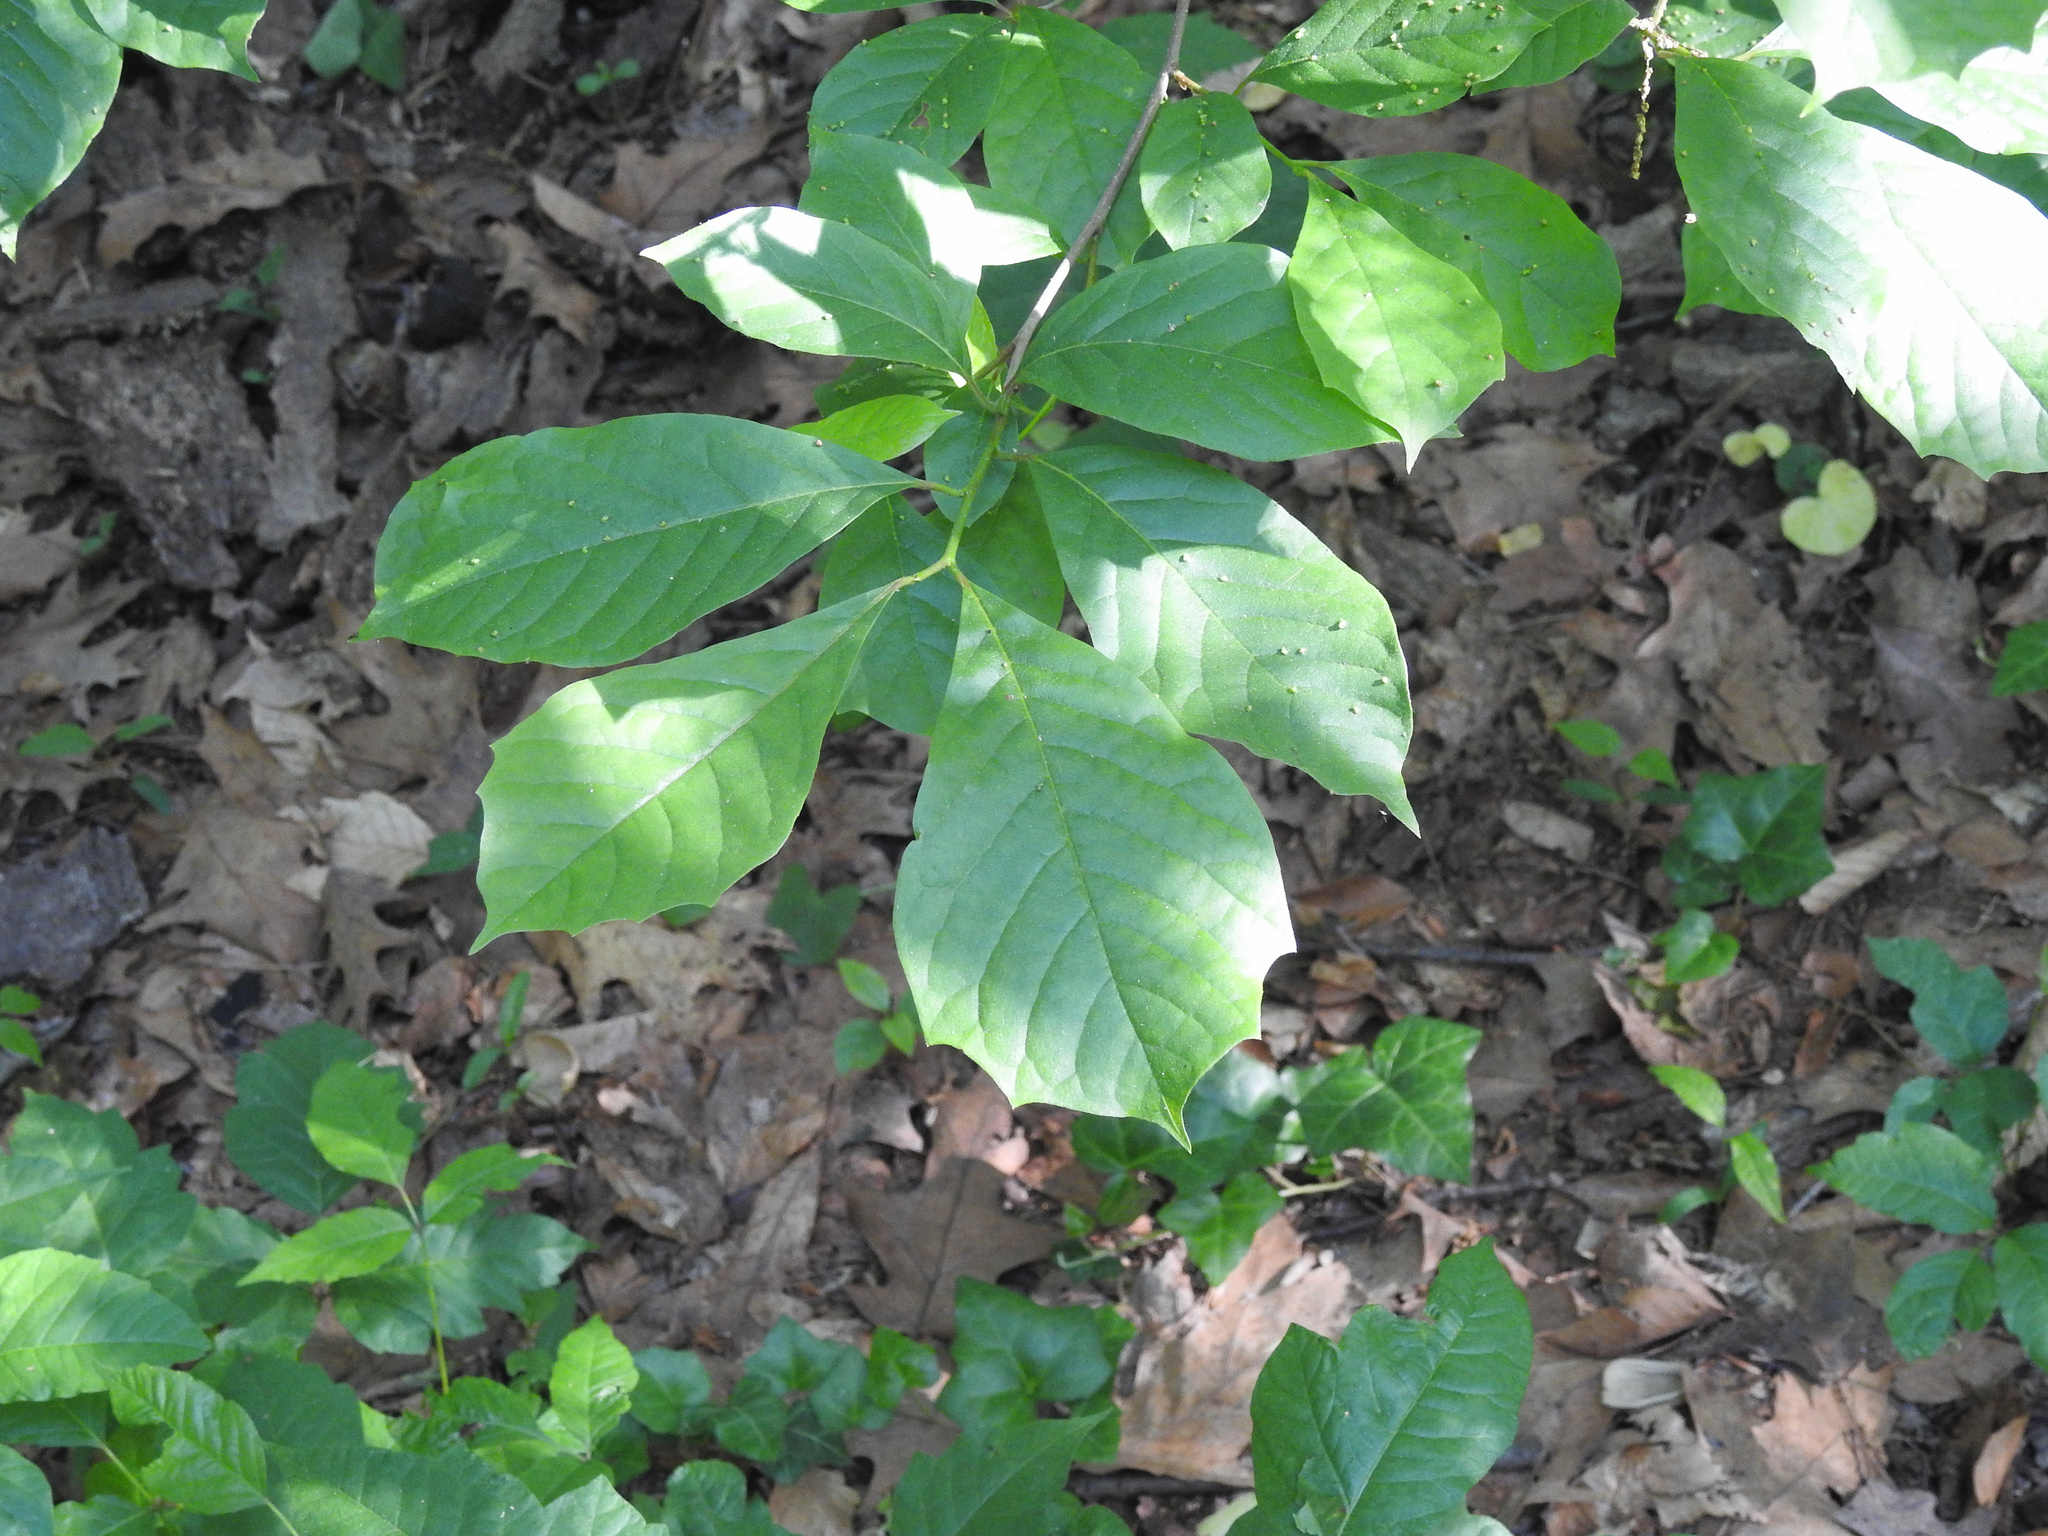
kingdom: Plantae
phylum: Tracheophyta
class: Magnoliopsida
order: Cornales
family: Nyssaceae
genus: Nyssa
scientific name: Nyssa sylvatica
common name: Black tupelo
